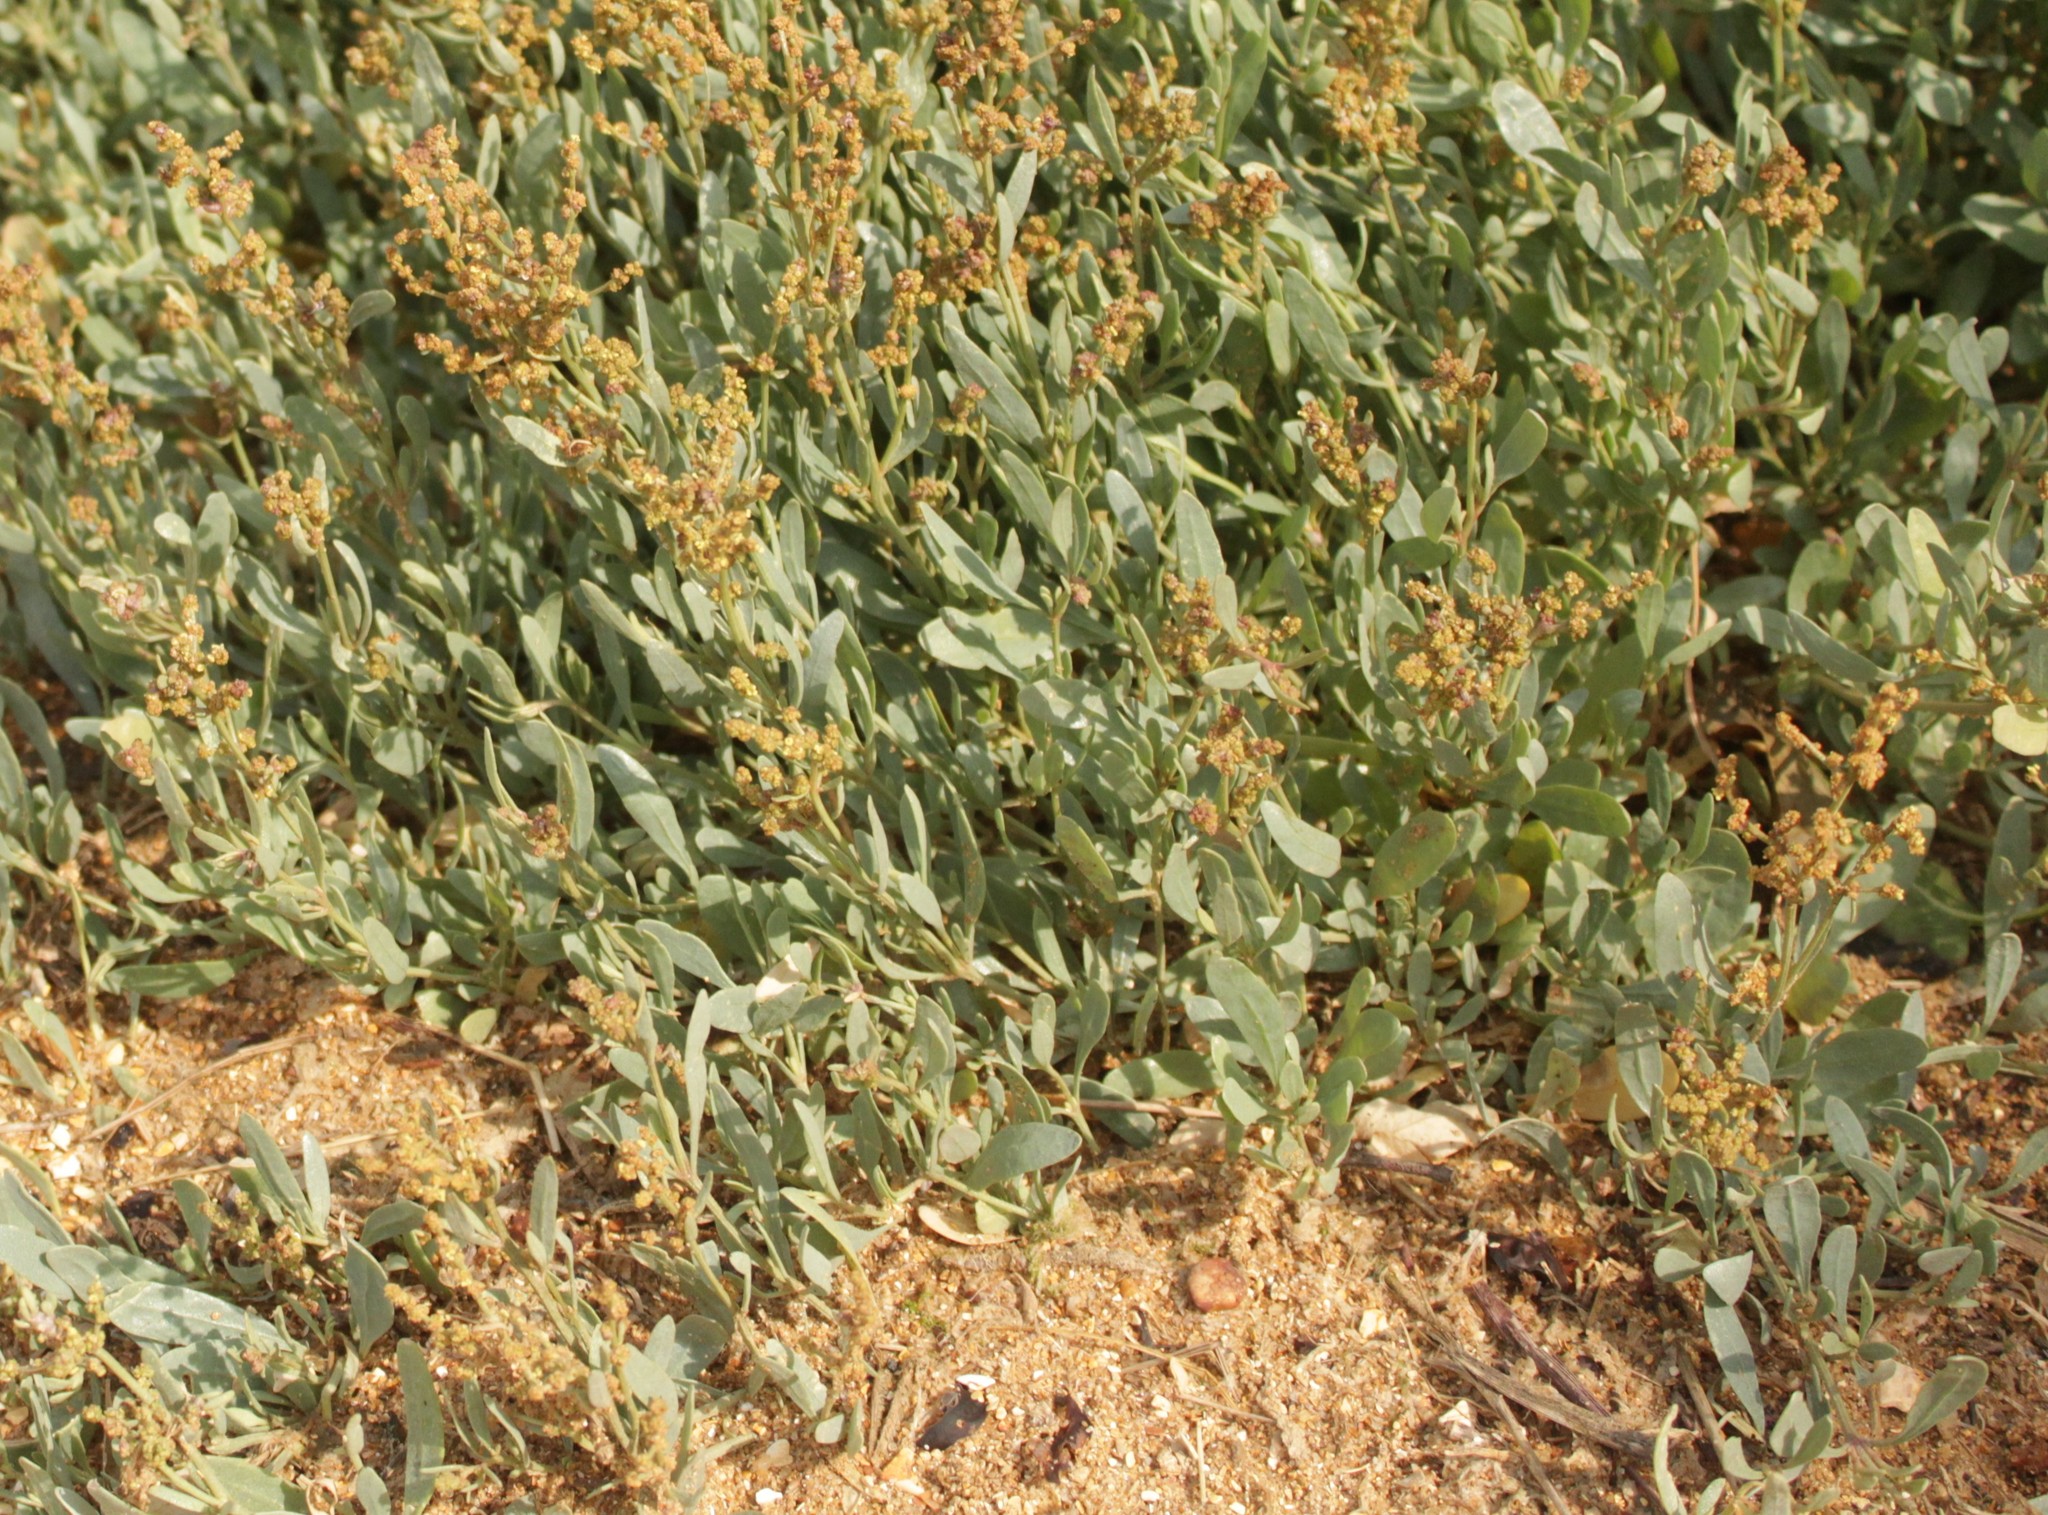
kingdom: Plantae
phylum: Tracheophyta
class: Magnoliopsida
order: Caryophyllales
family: Amaranthaceae
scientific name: Amaranthaceae
